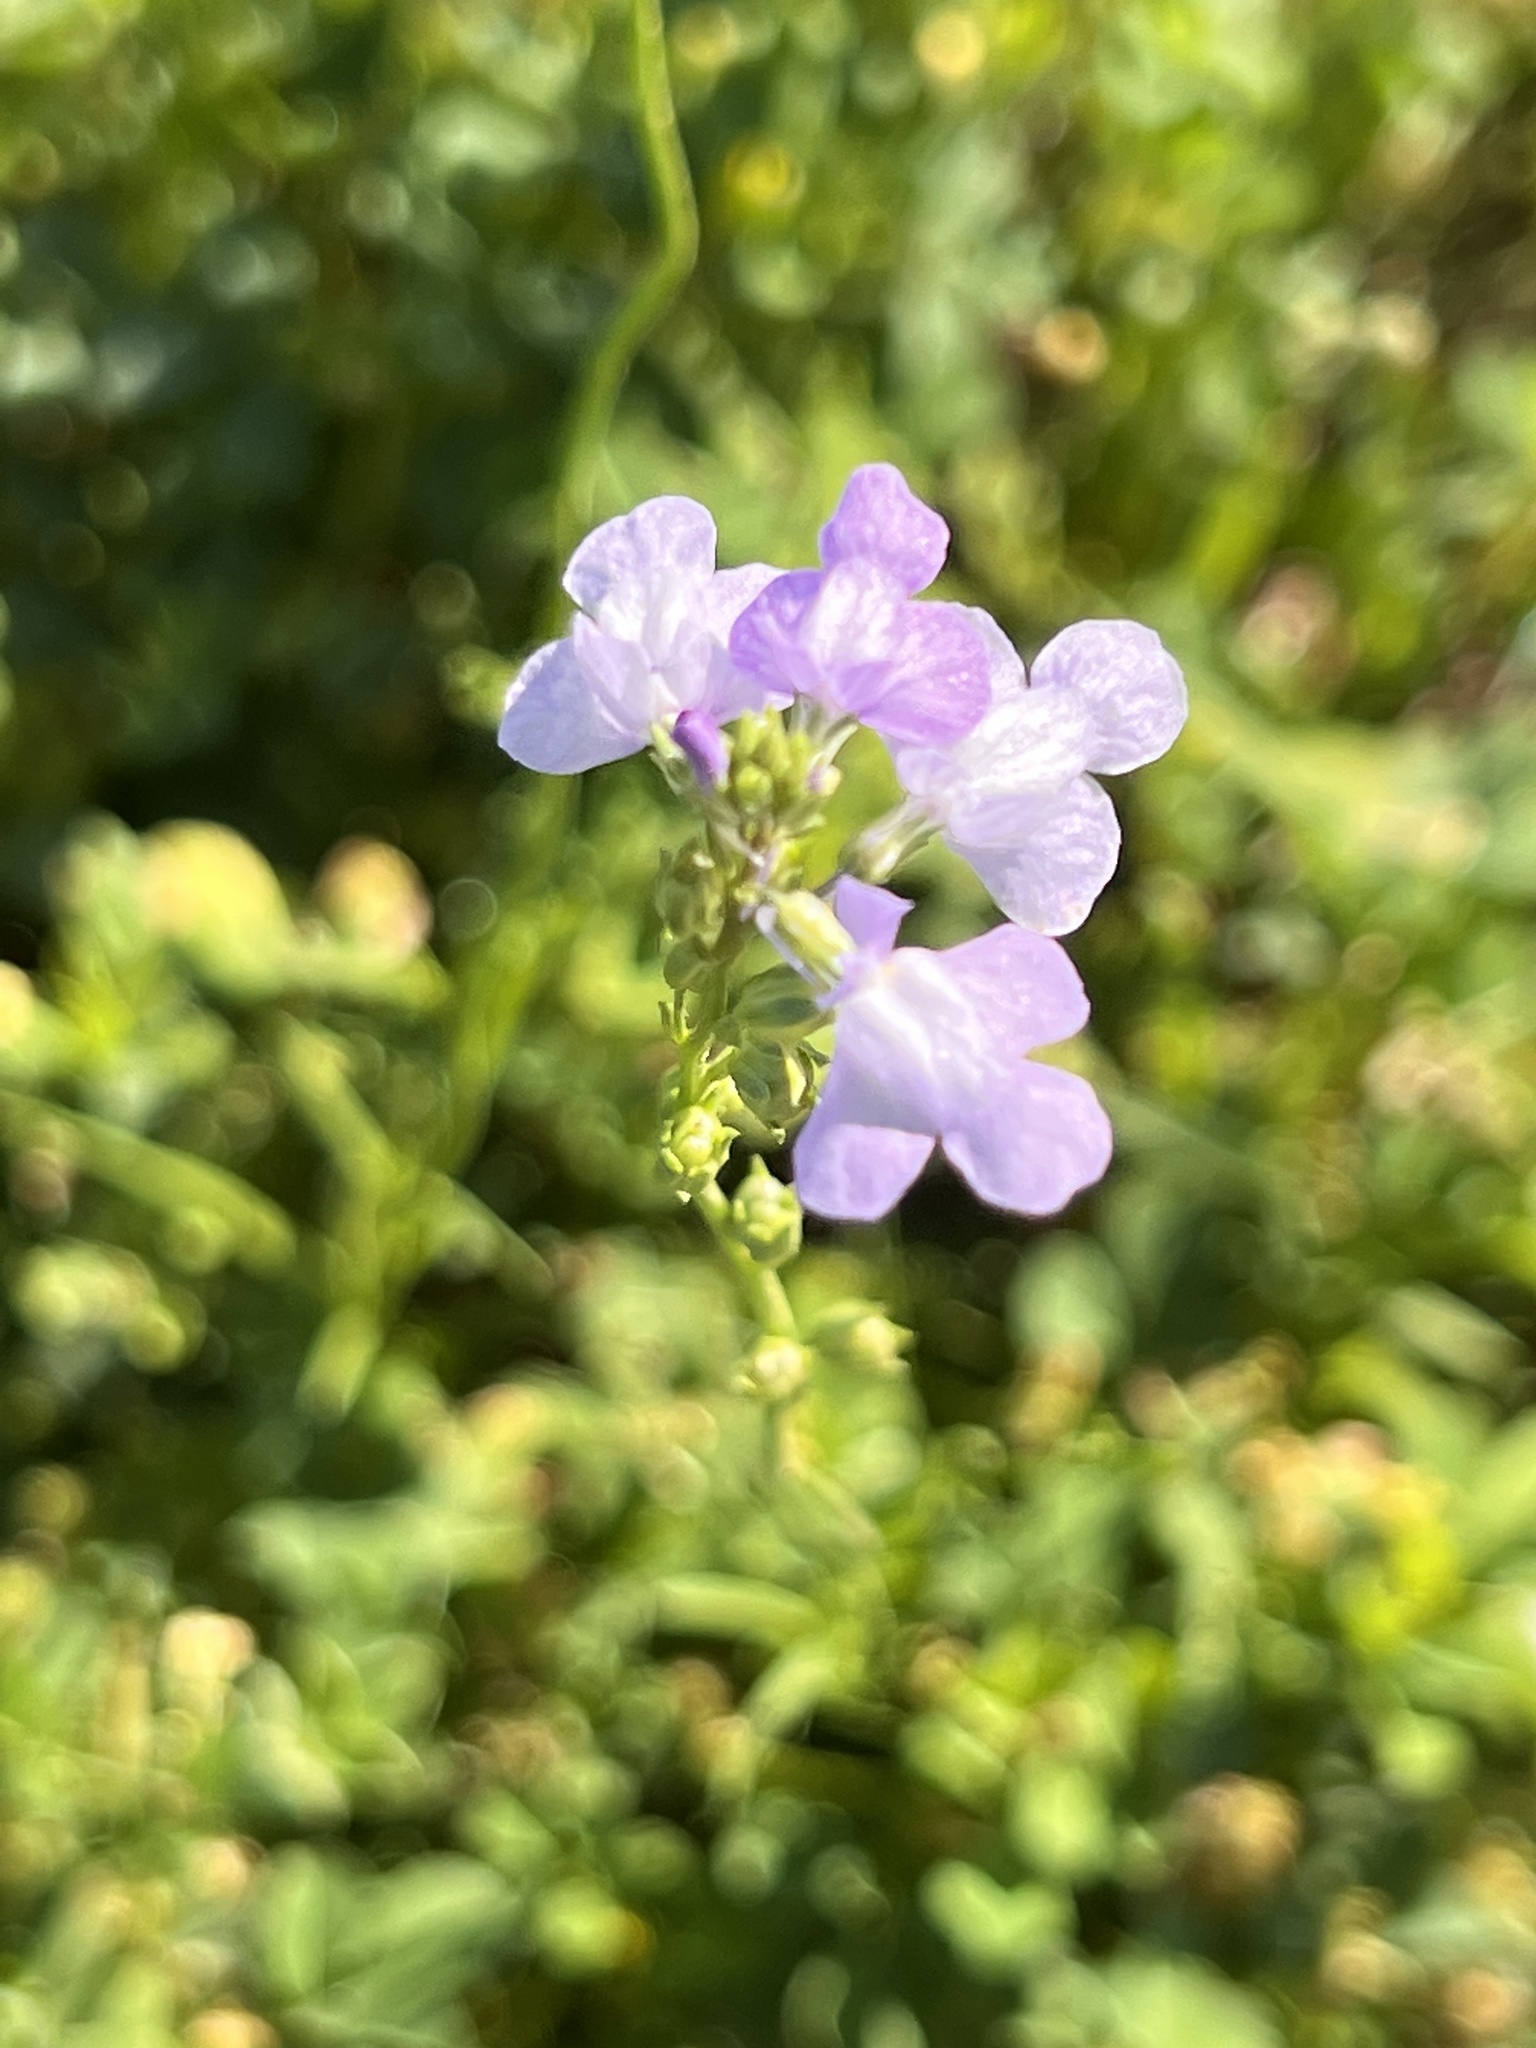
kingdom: Plantae
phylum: Tracheophyta
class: Magnoliopsida
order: Lamiales
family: Plantaginaceae
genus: Nuttallanthus
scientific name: Nuttallanthus texanus
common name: Texas toadflax
